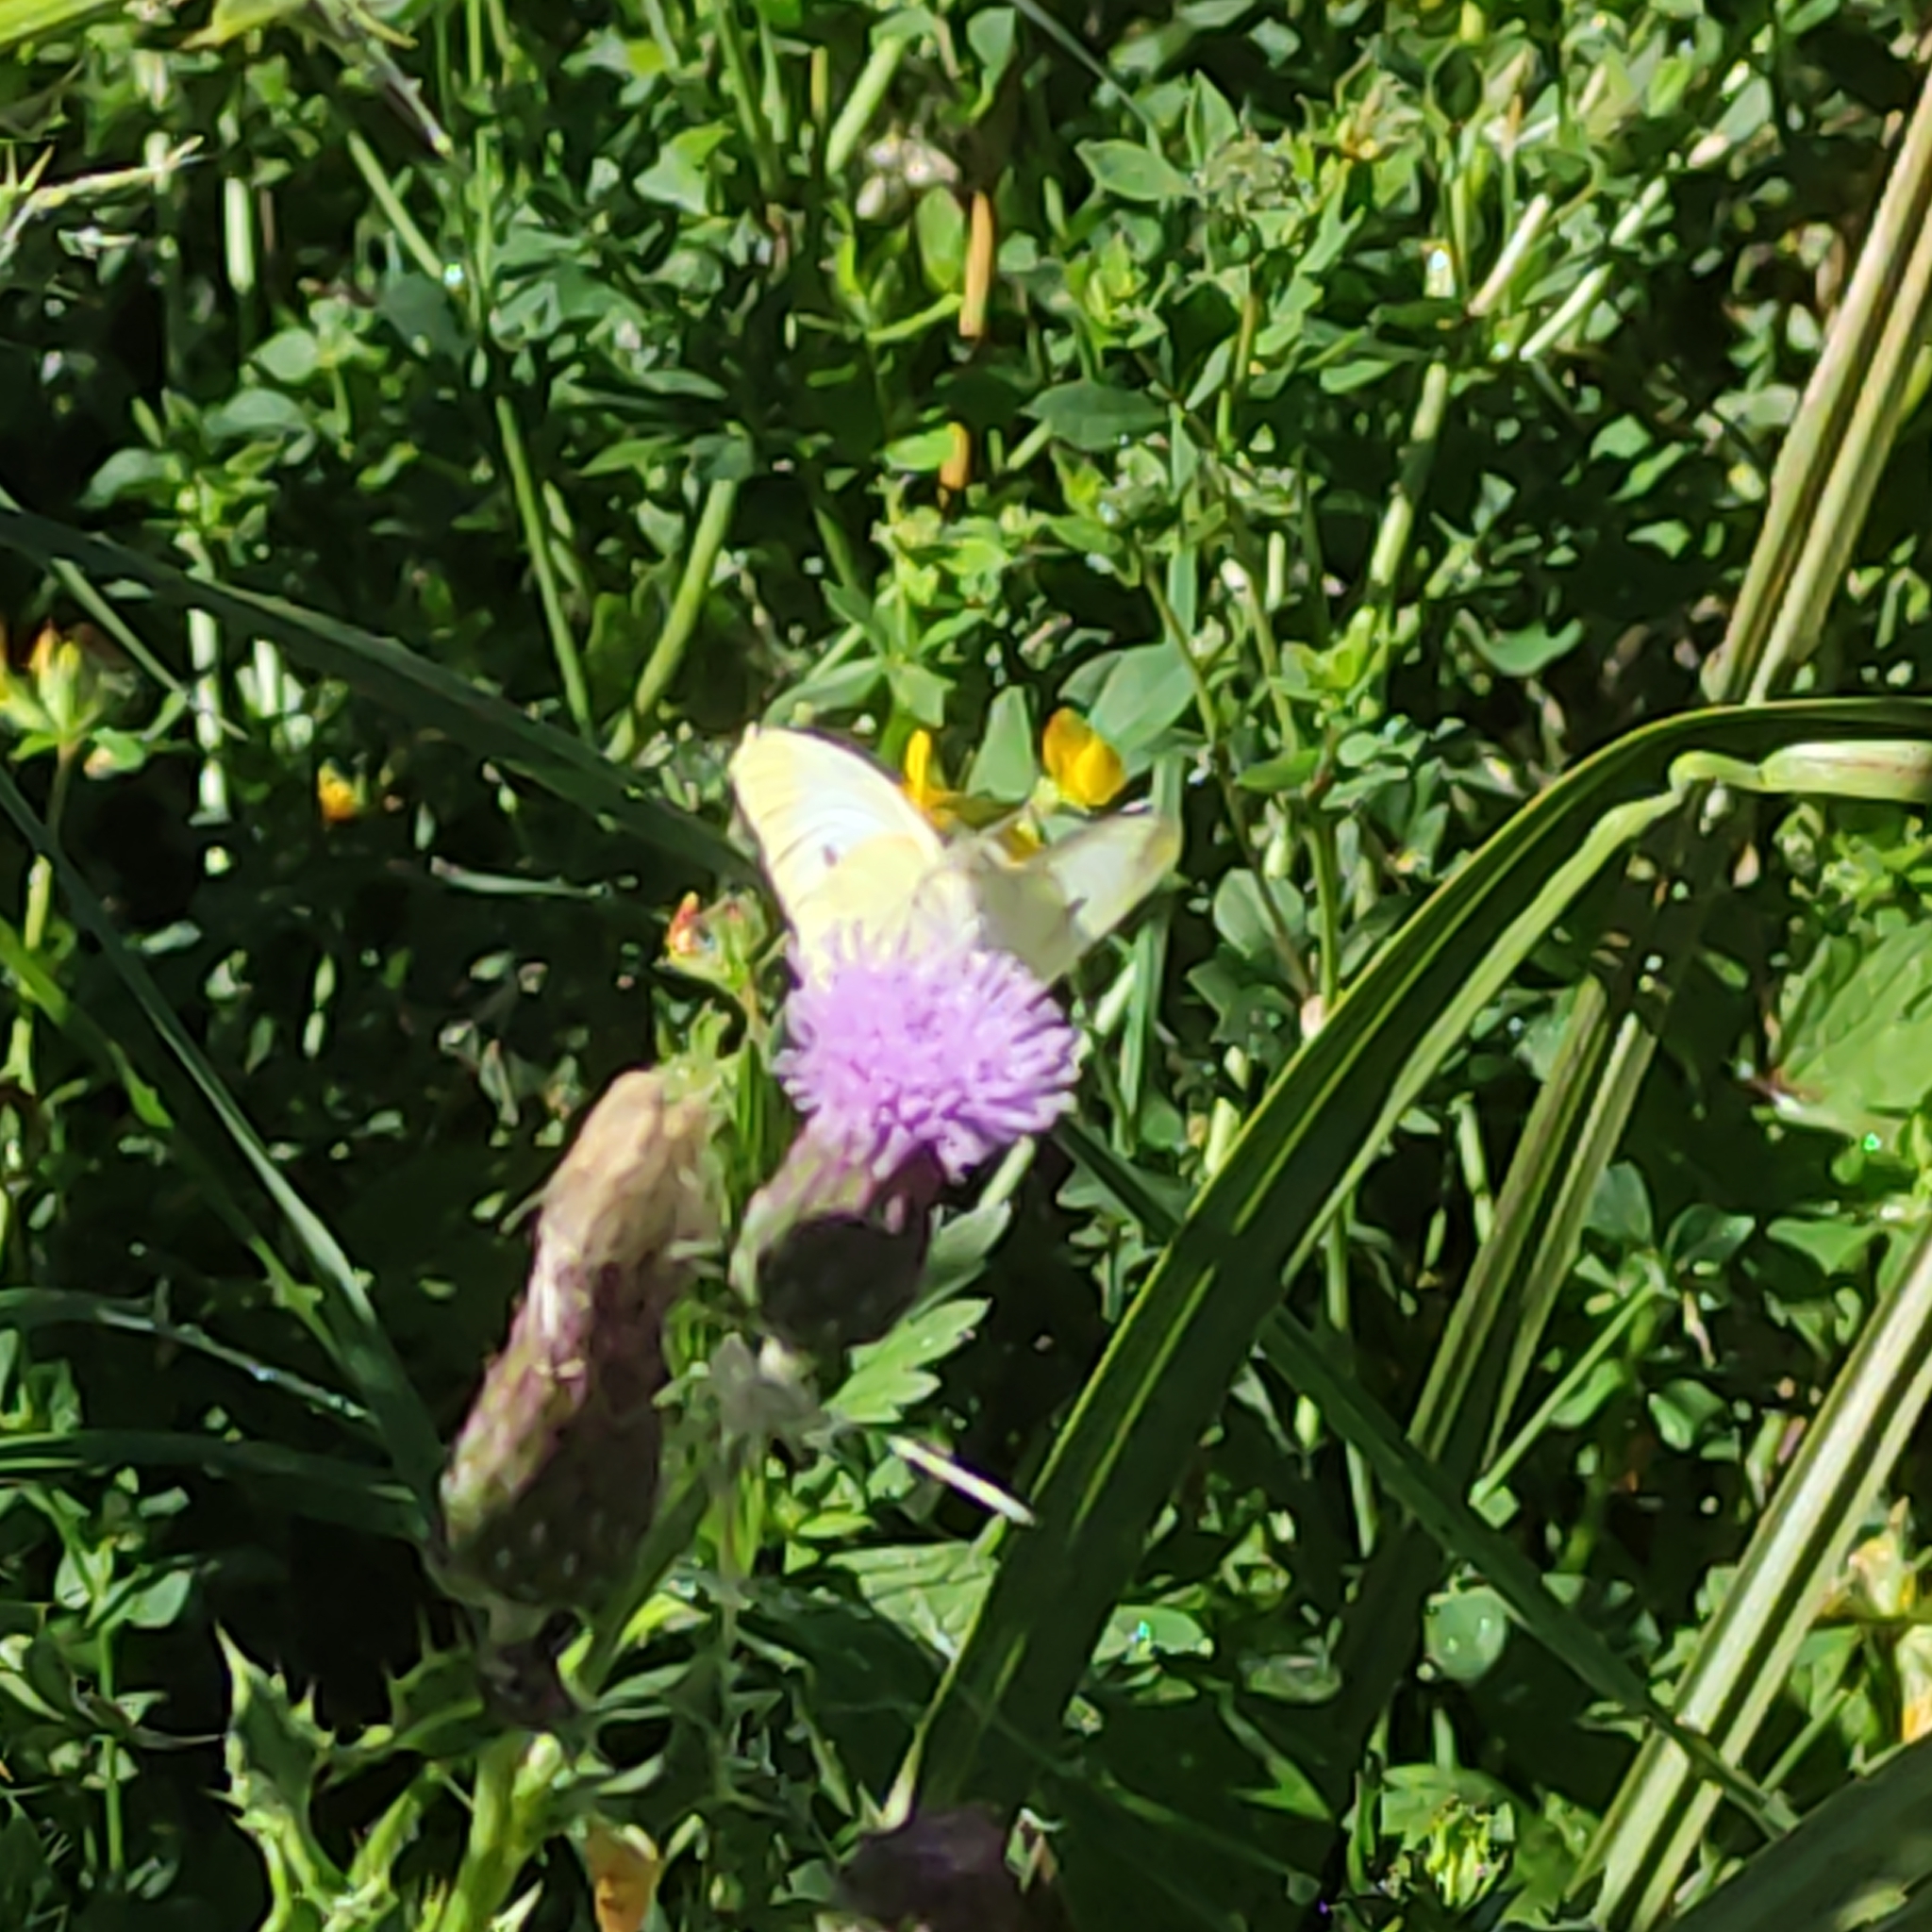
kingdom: Animalia
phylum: Arthropoda
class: Insecta
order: Lepidoptera
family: Pieridae
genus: Pieris
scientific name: Pieris rapae
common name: Small white
